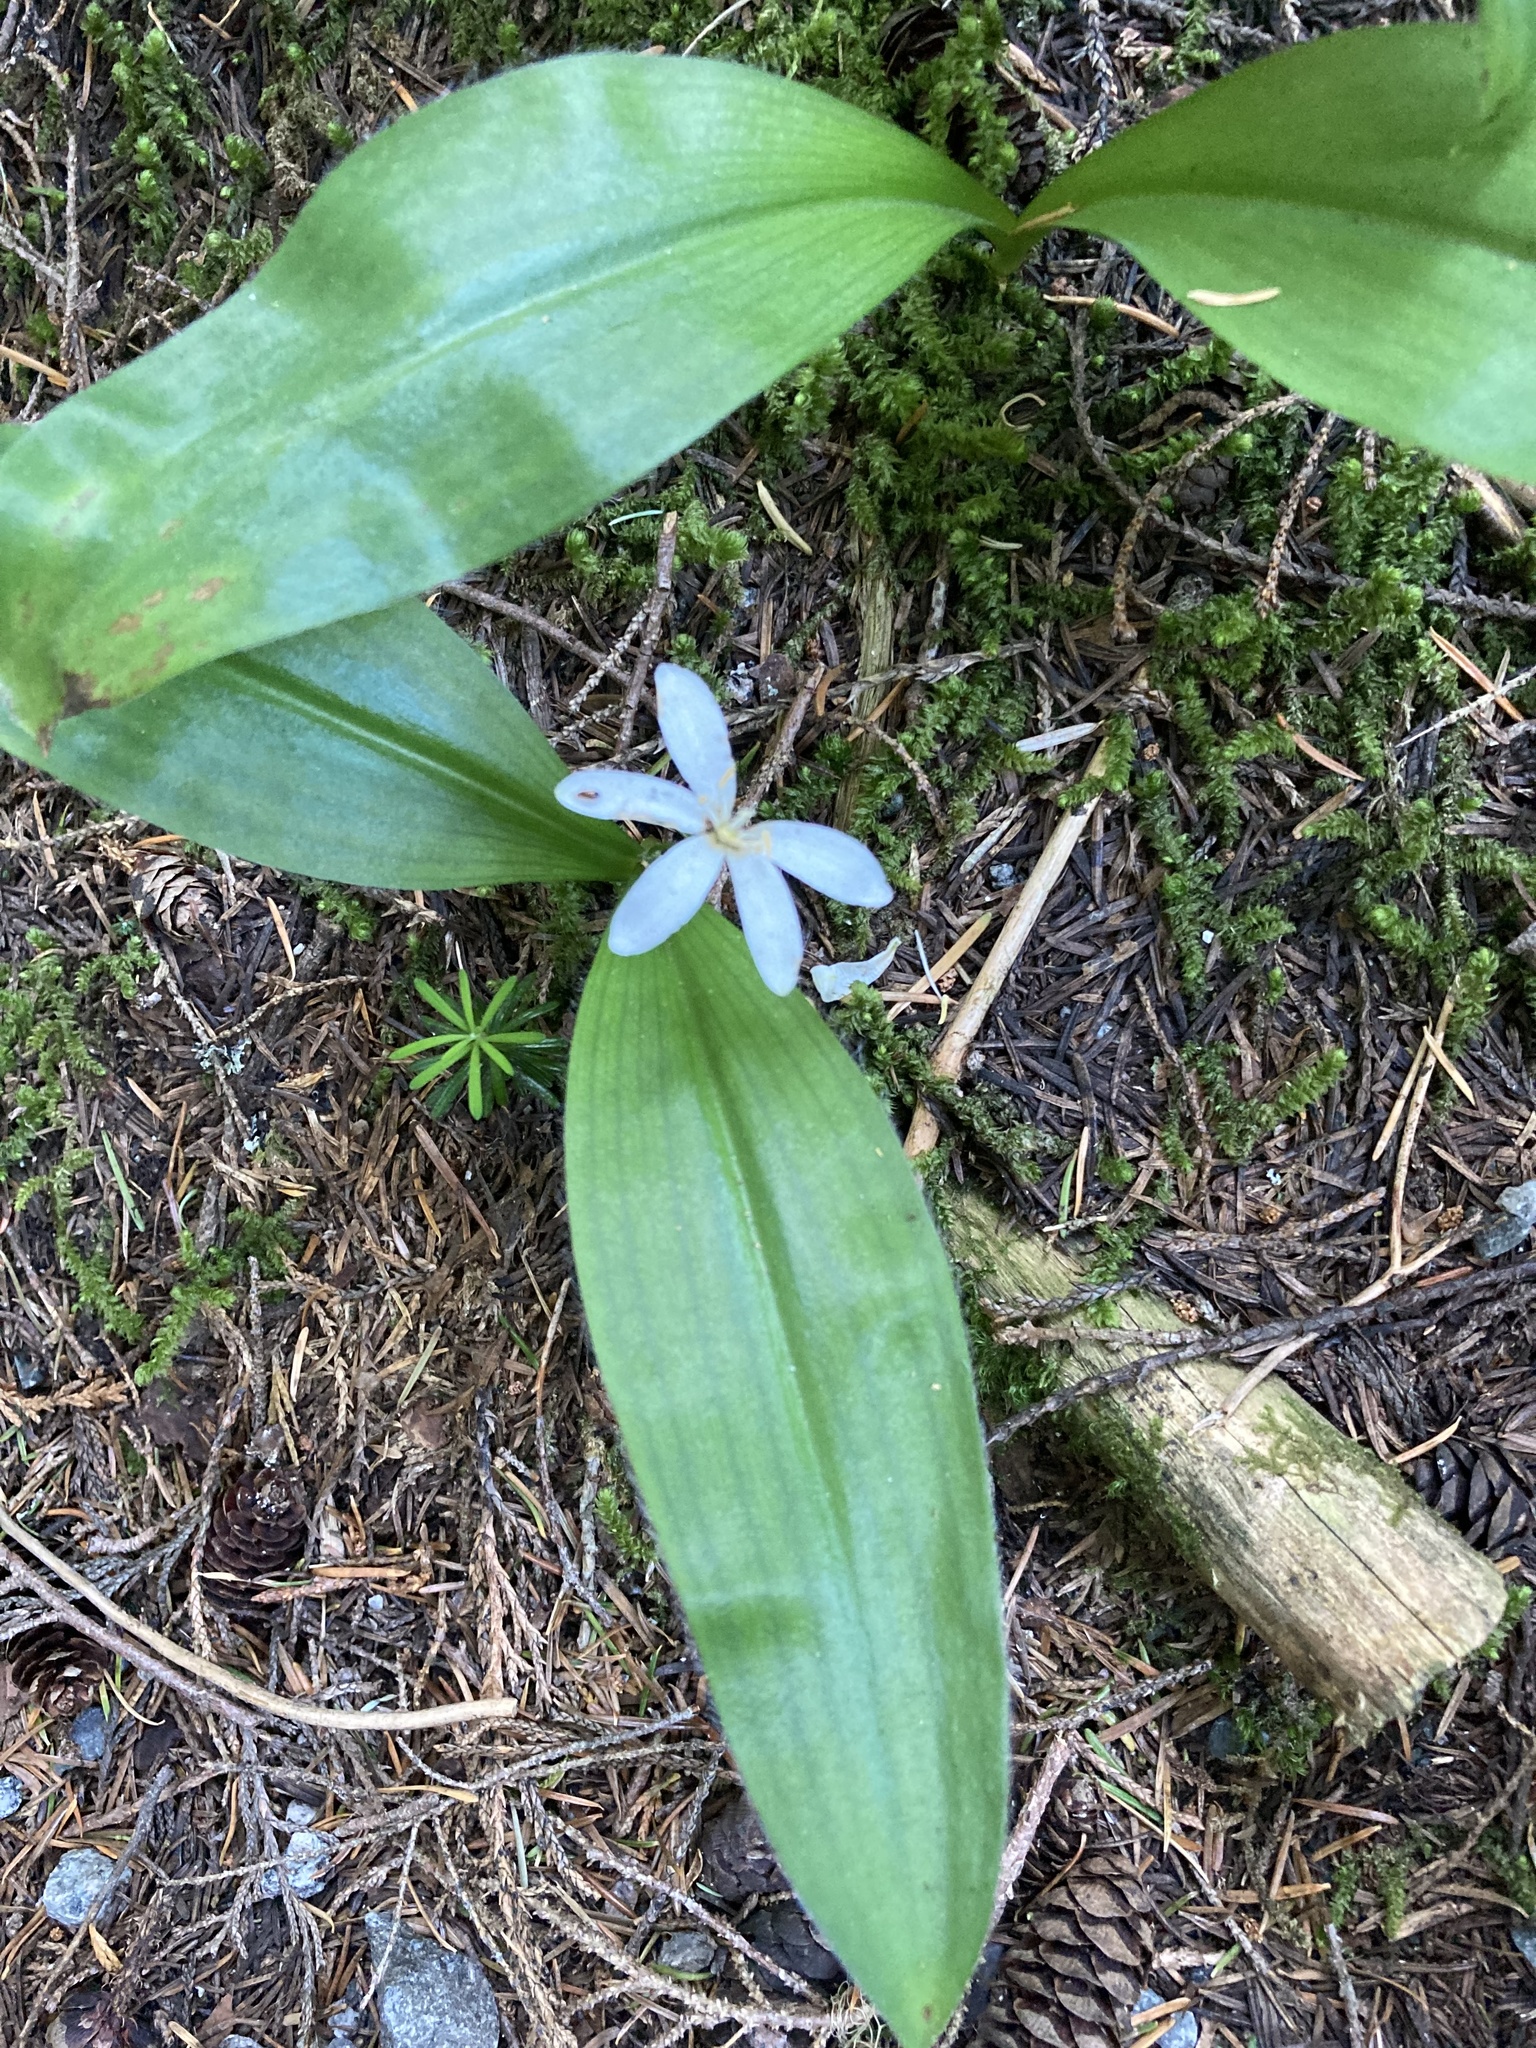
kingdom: Plantae
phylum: Tracheophyta
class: Liliopsida
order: Liliales
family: Liliaceae
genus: Clintonia
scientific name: Clintonia uniflora
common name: Queen's cup
